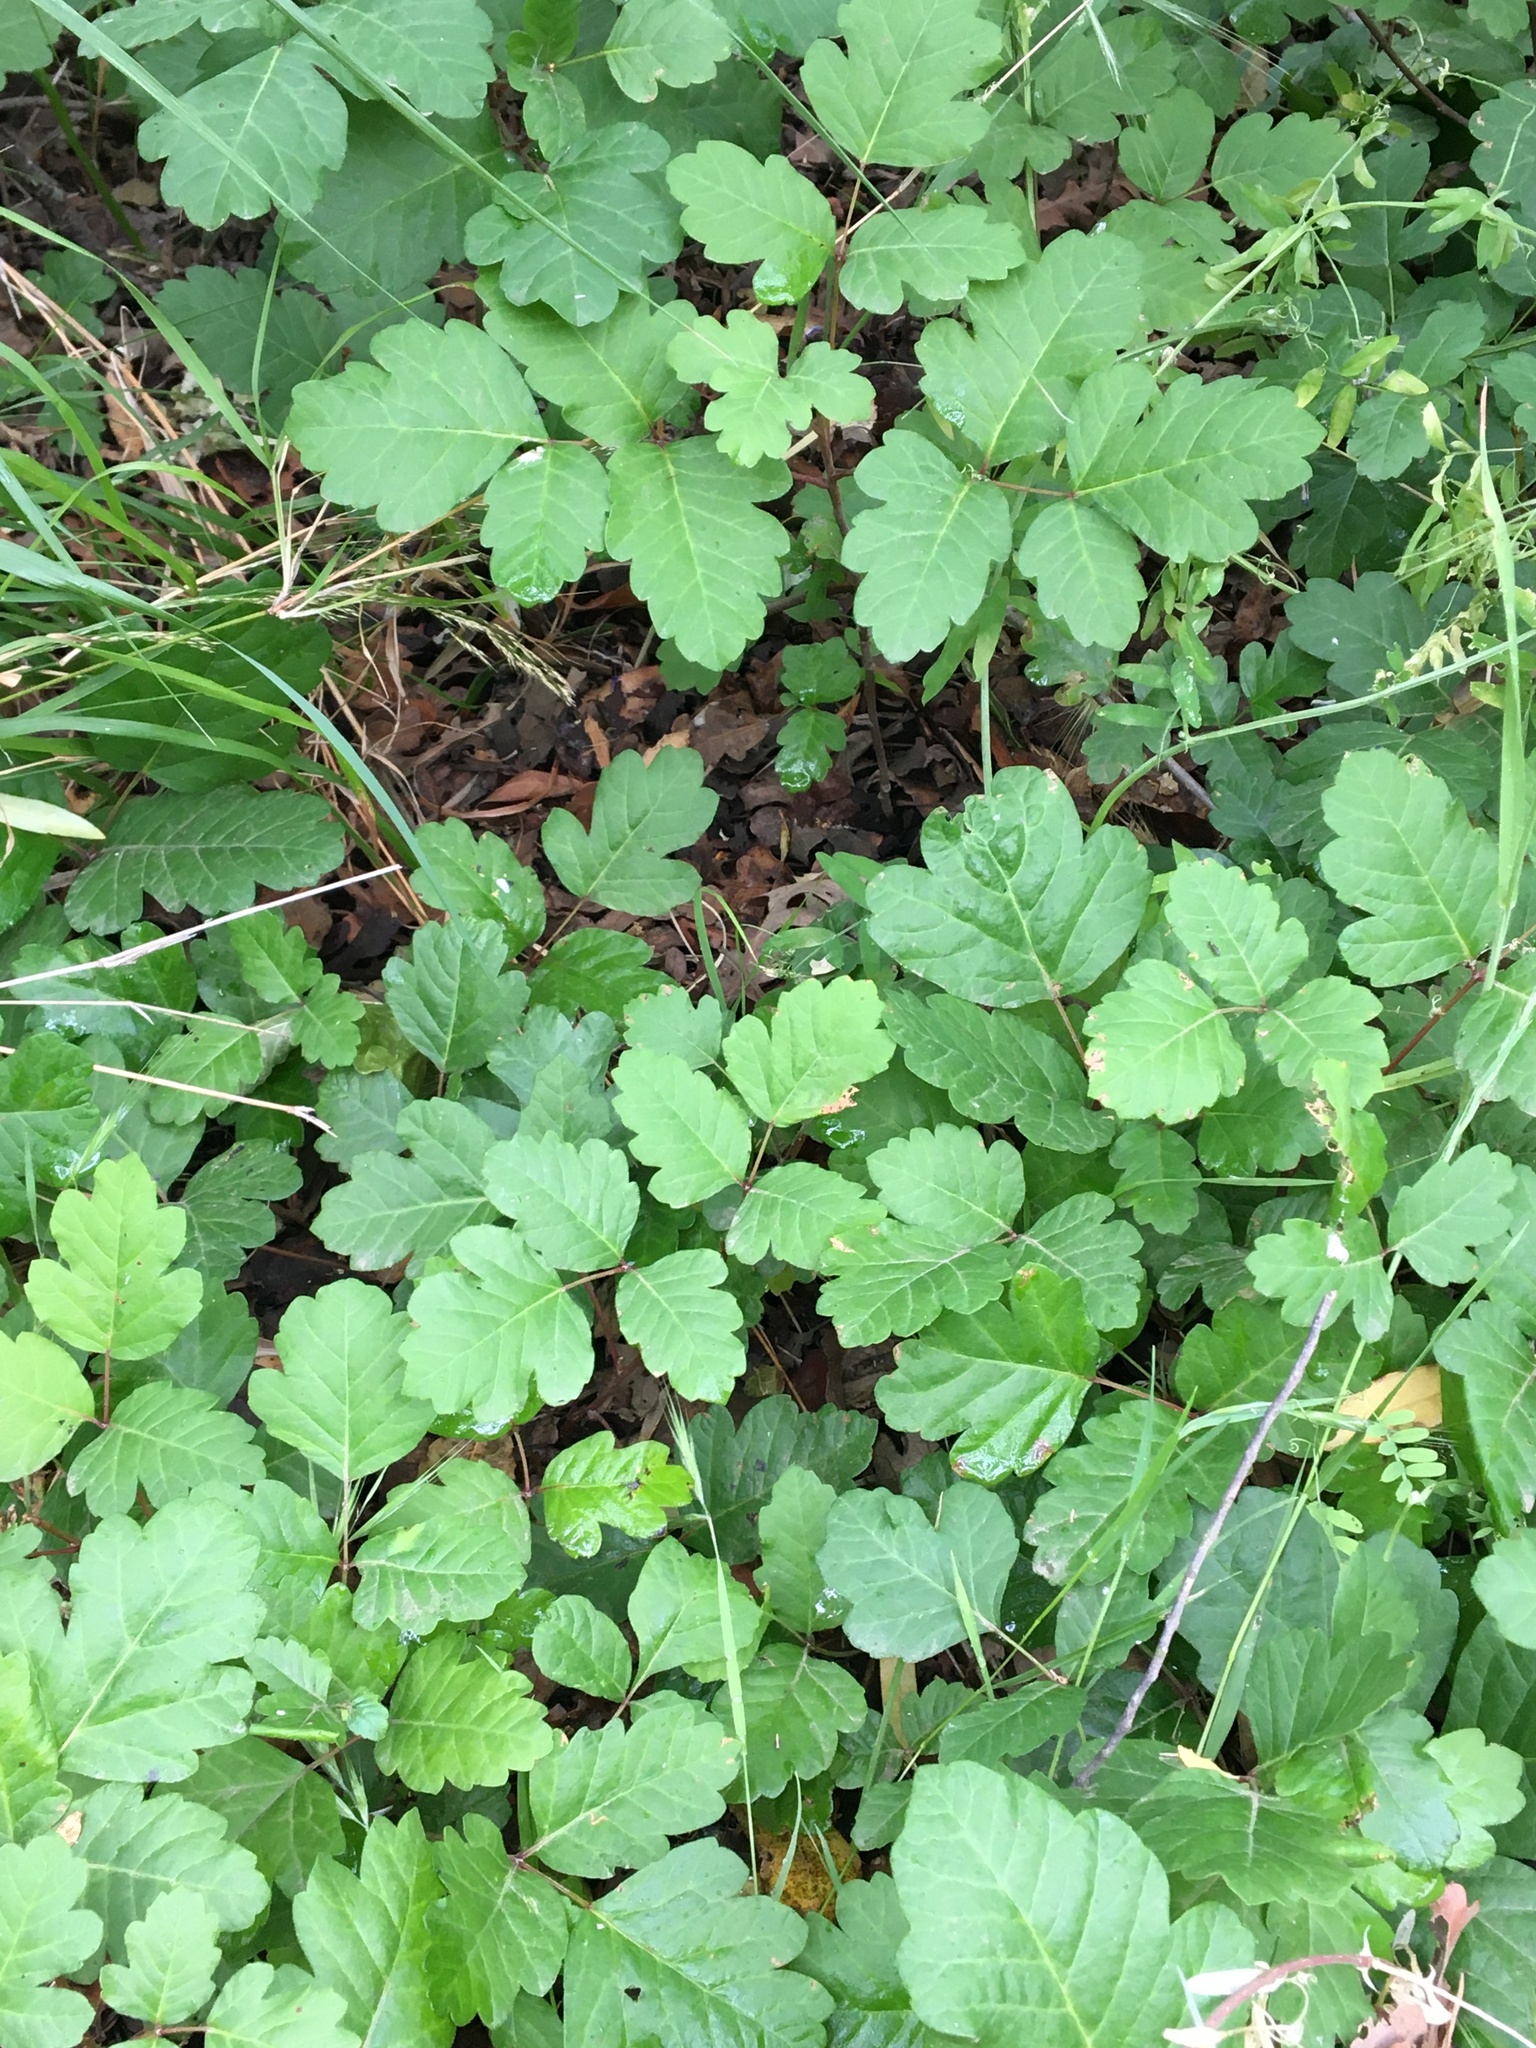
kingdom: Plantae
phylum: Tracheophyta
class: Magnoliopsida
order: Sapindales
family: Anacardiaceae
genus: Toxicodendron
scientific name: Toxicodendron diversilobum
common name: Pacific poison-oak
